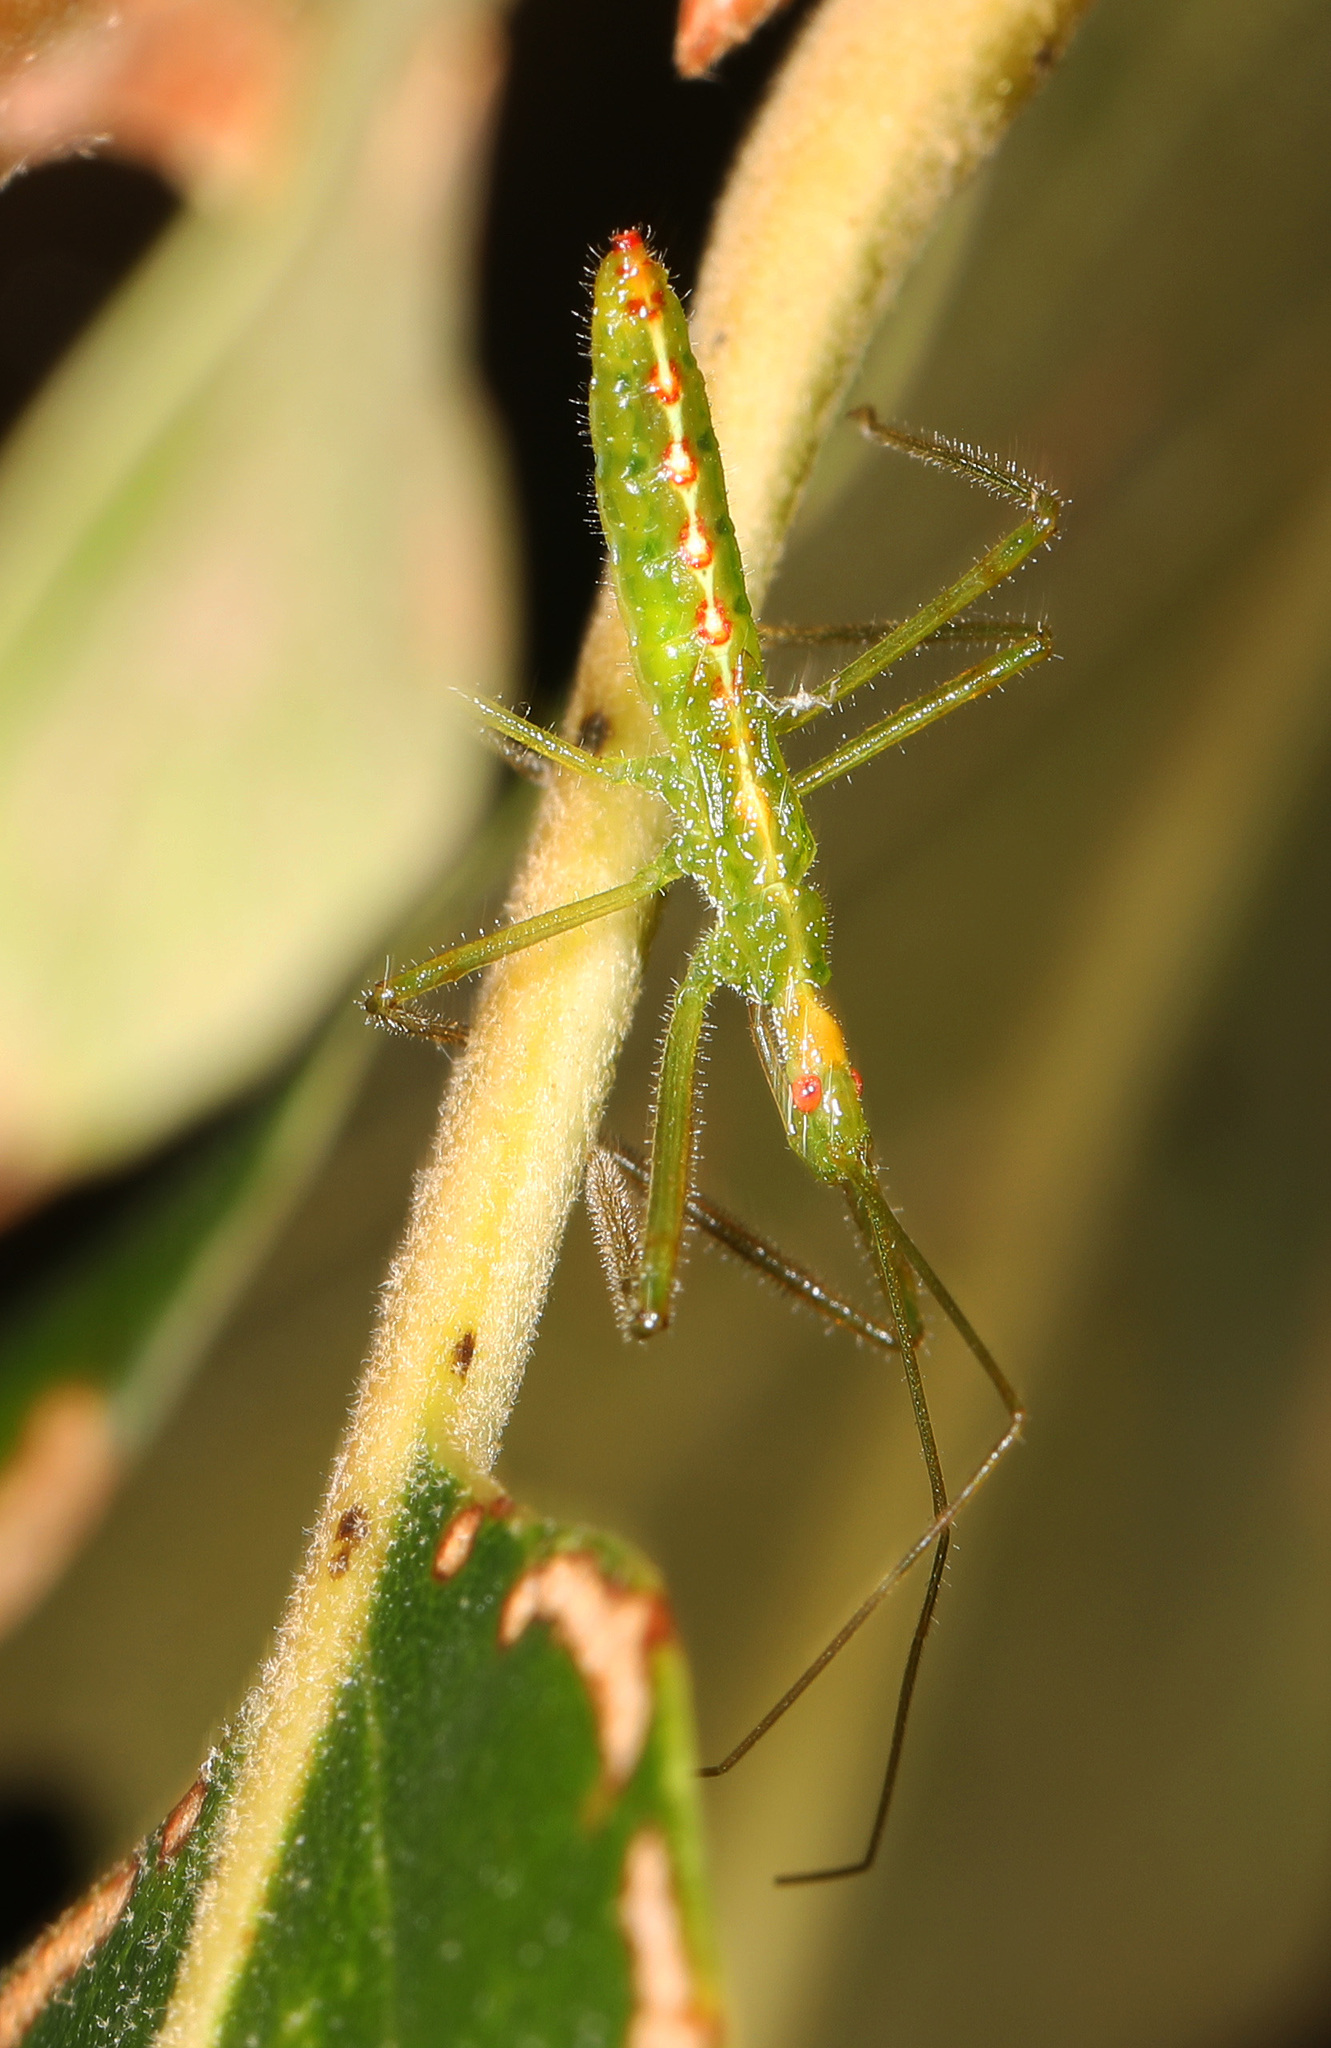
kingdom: Animalia
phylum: Arthropoda
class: Insecta
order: Hemiptera
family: Reduviidae
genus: Zelus
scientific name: Zelus luridus
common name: Pale green assassin bug
